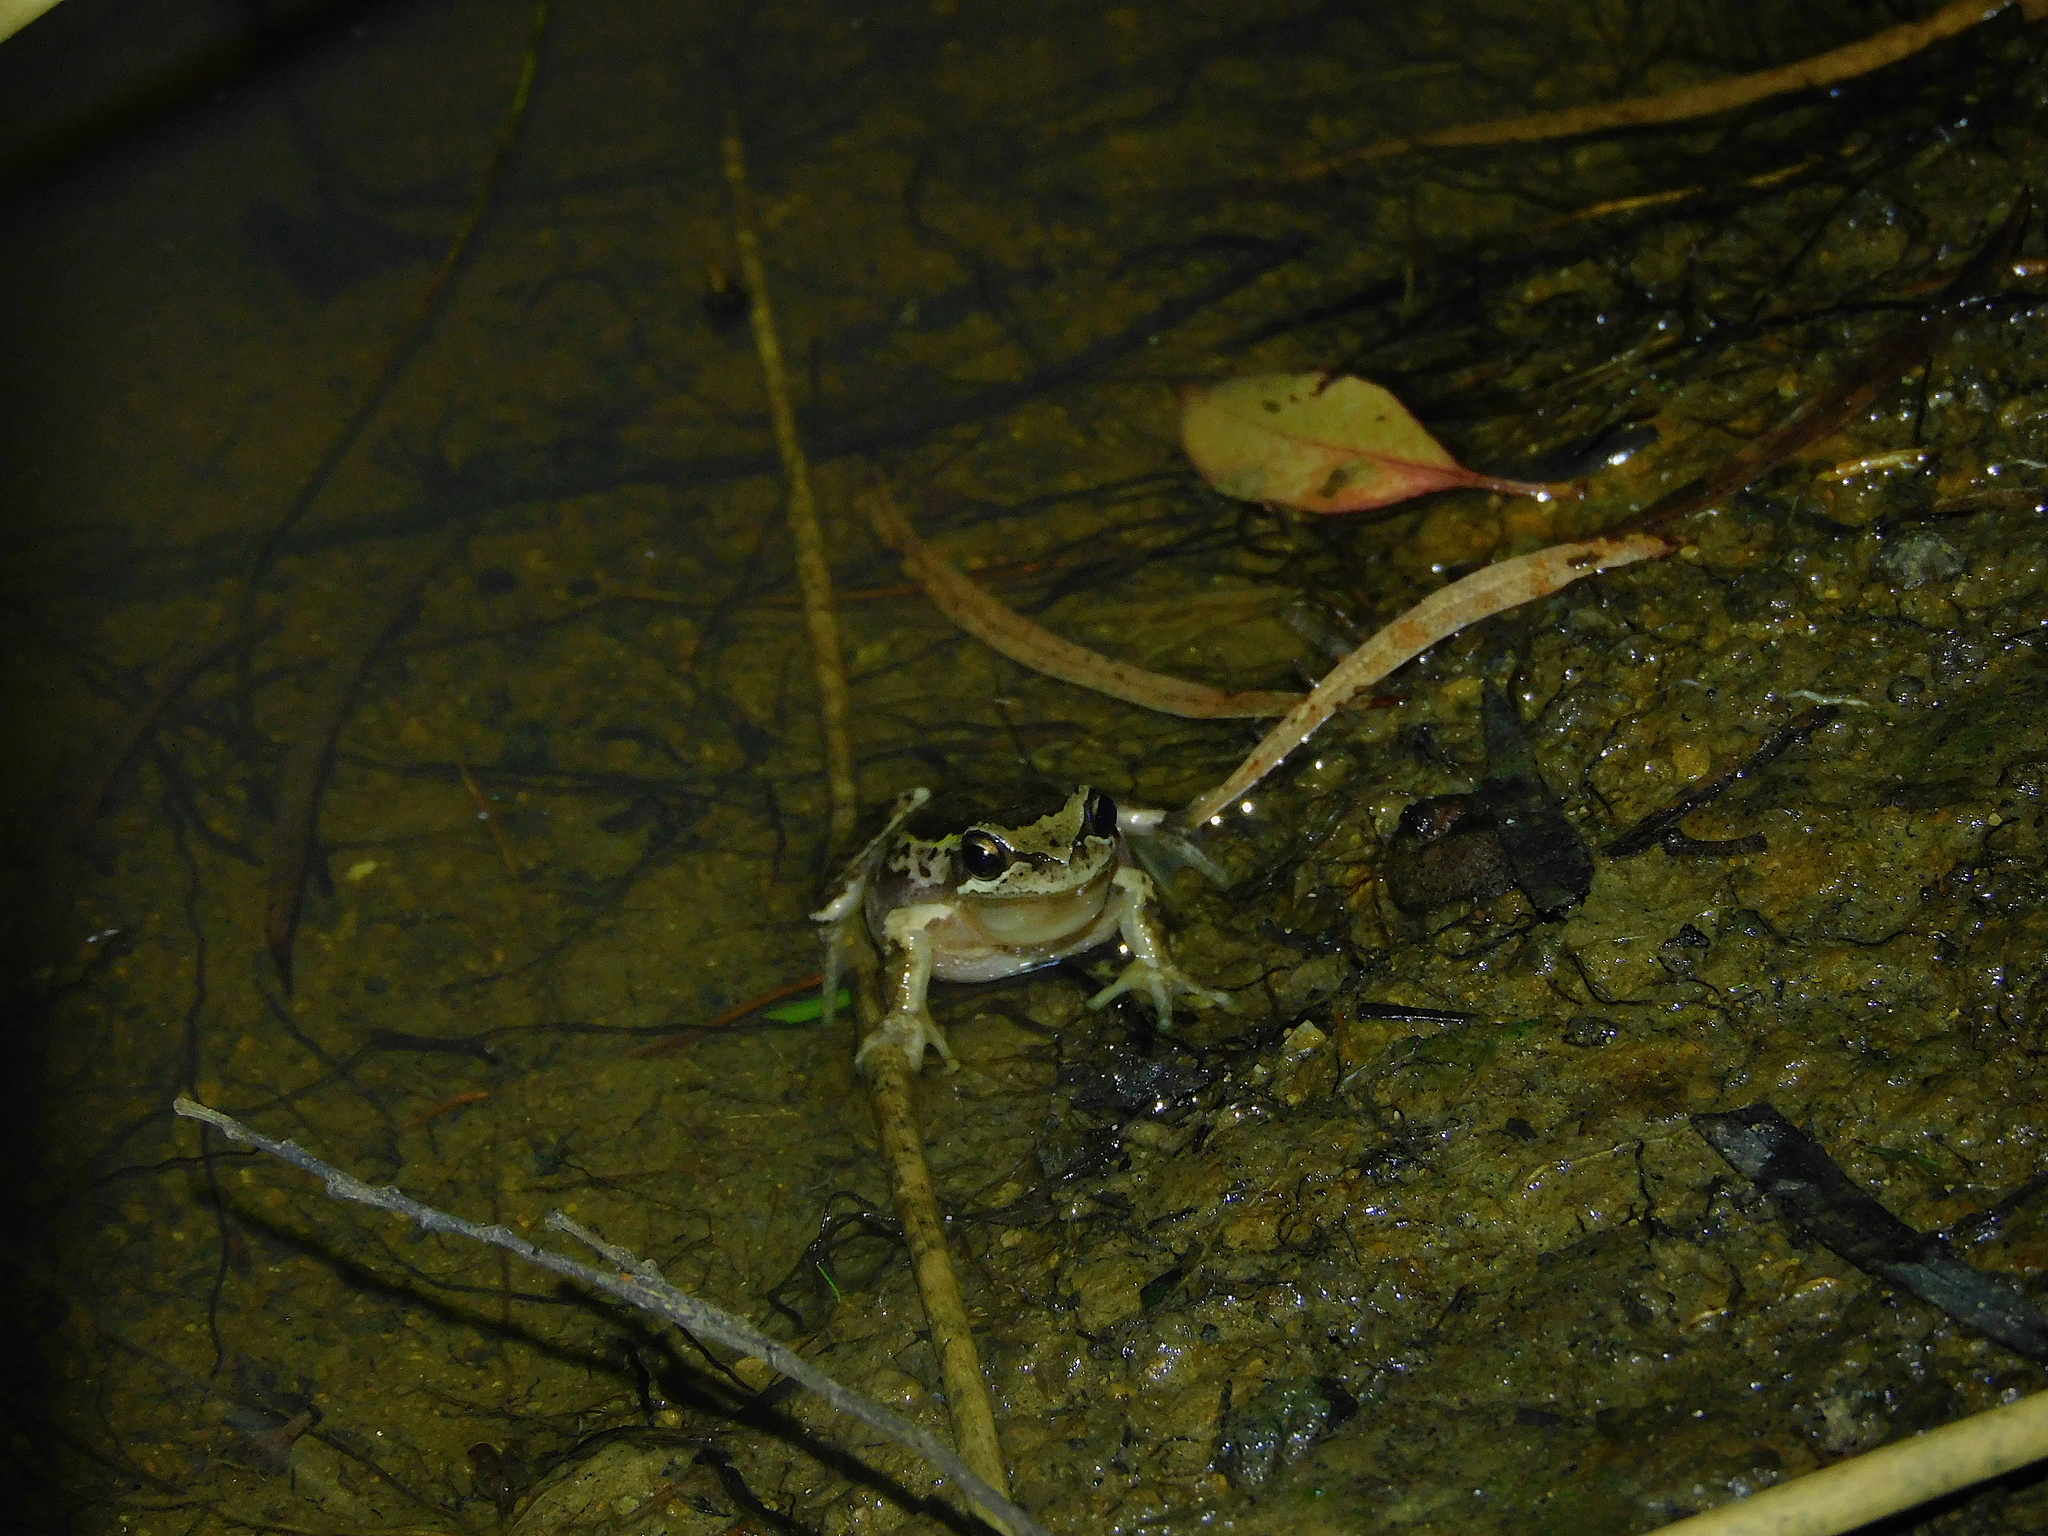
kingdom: Animalia
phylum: Chordata
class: Amphibia
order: Anura
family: Pelodryadidae
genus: Litoria
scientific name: Litoria ewingii
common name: Southern brown tree frog
